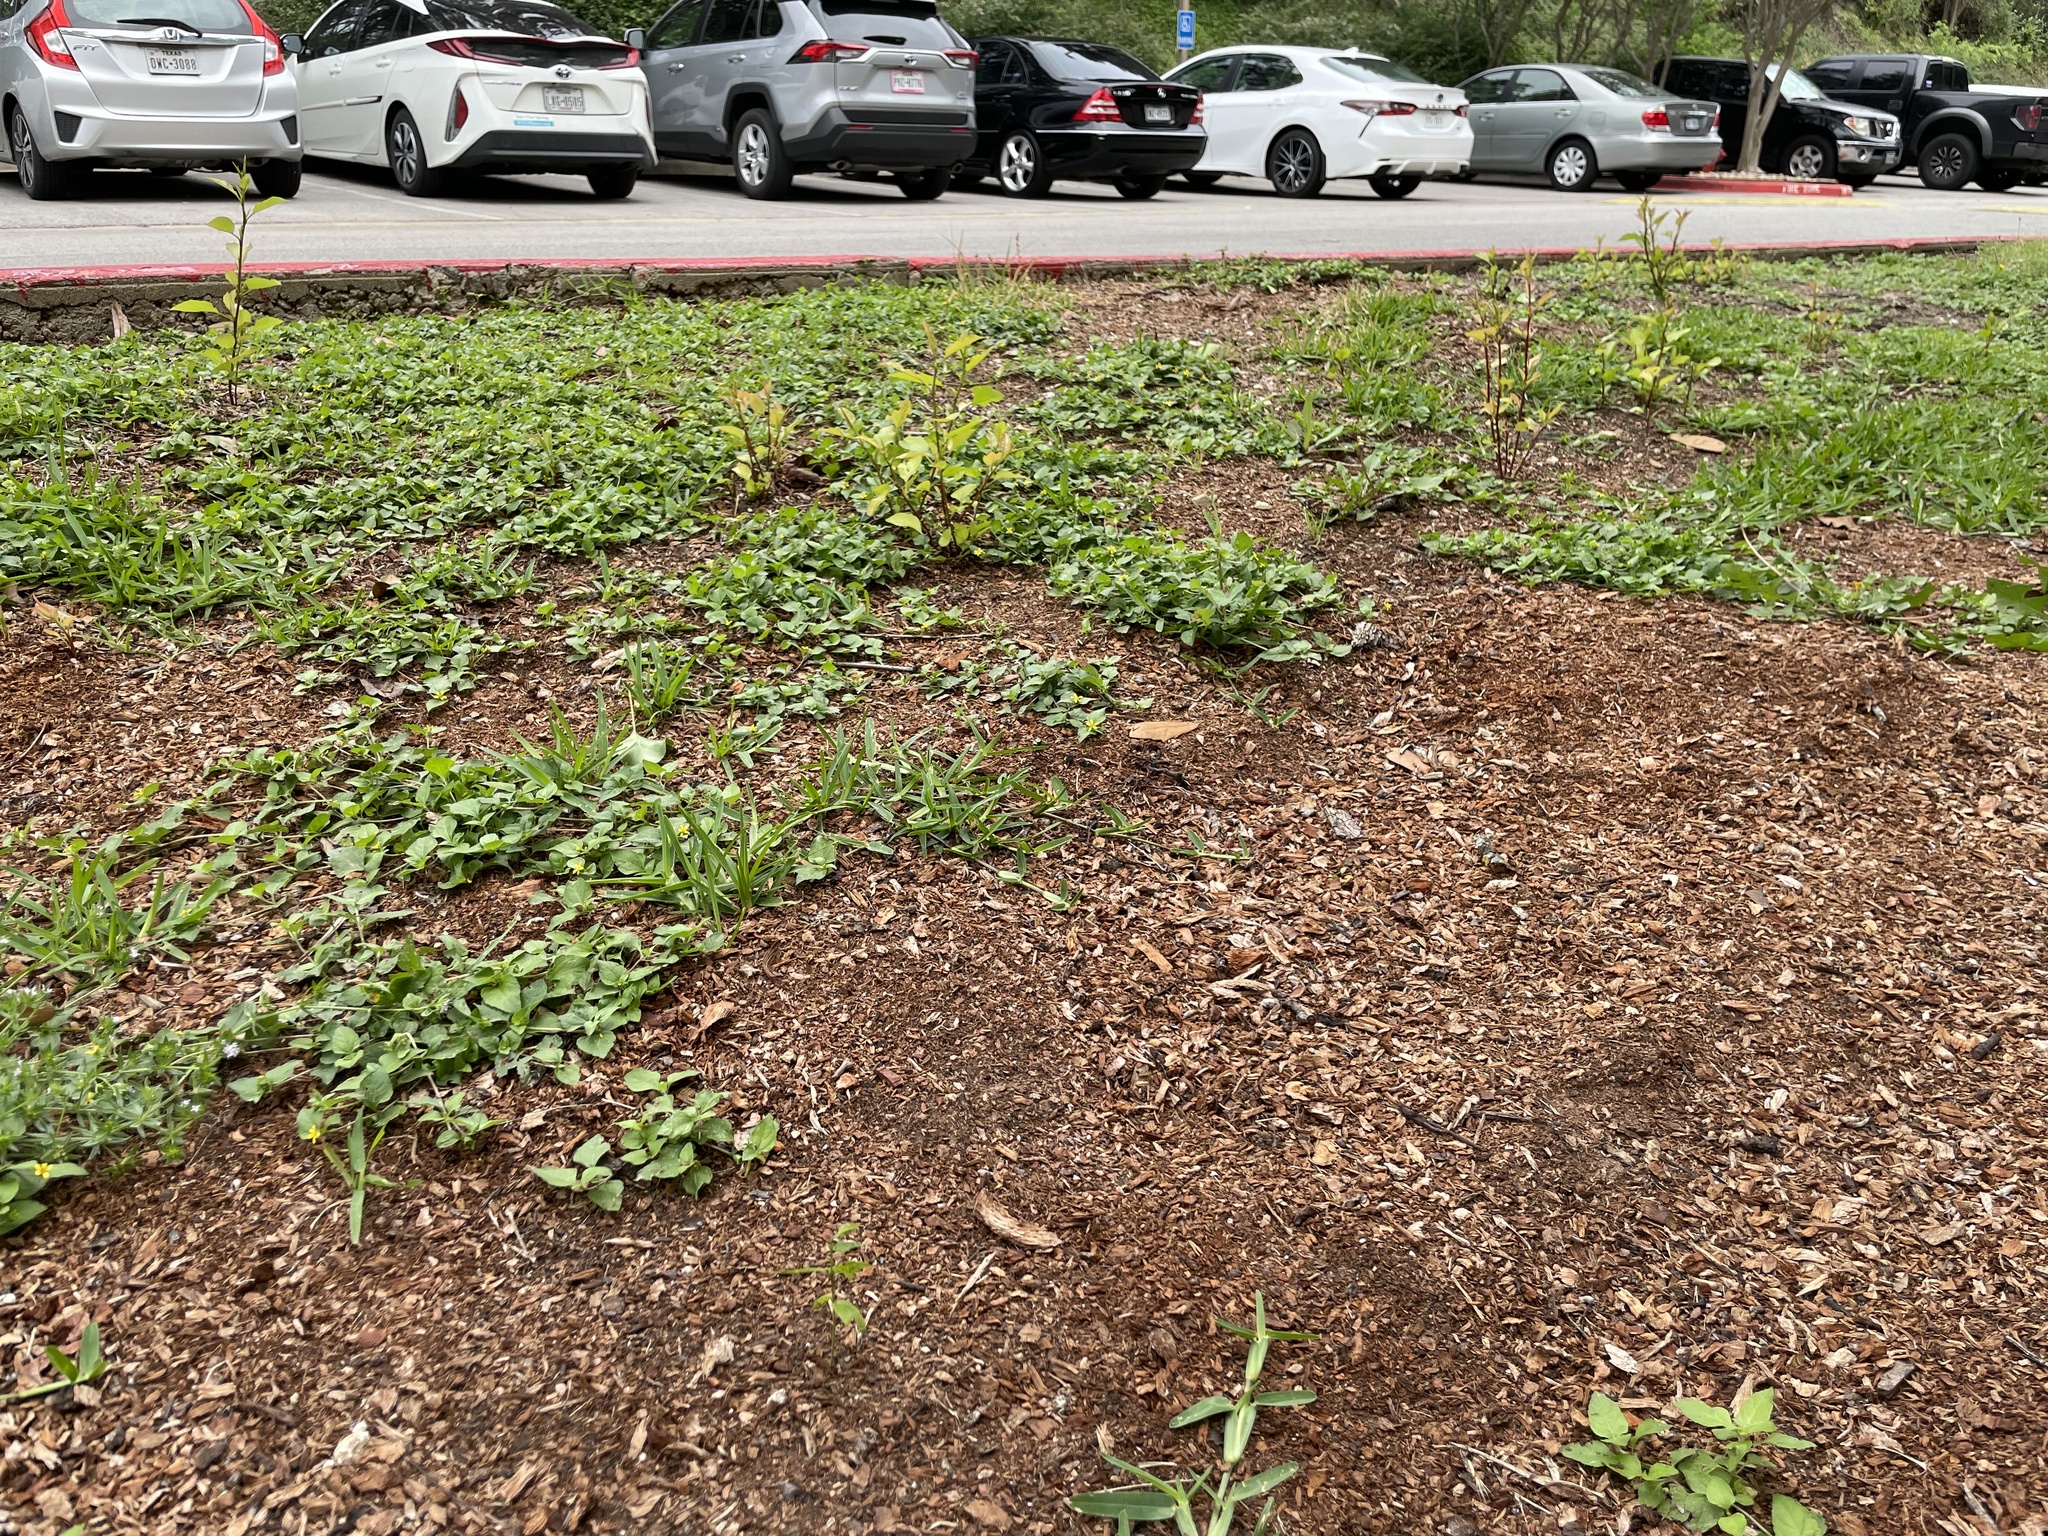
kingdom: Plantae
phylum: Tracheophyta
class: Magnoliopsida
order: Rosales
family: Rosaceae
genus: Pyrus
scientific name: Pyrus calleryana
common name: Callery pear
